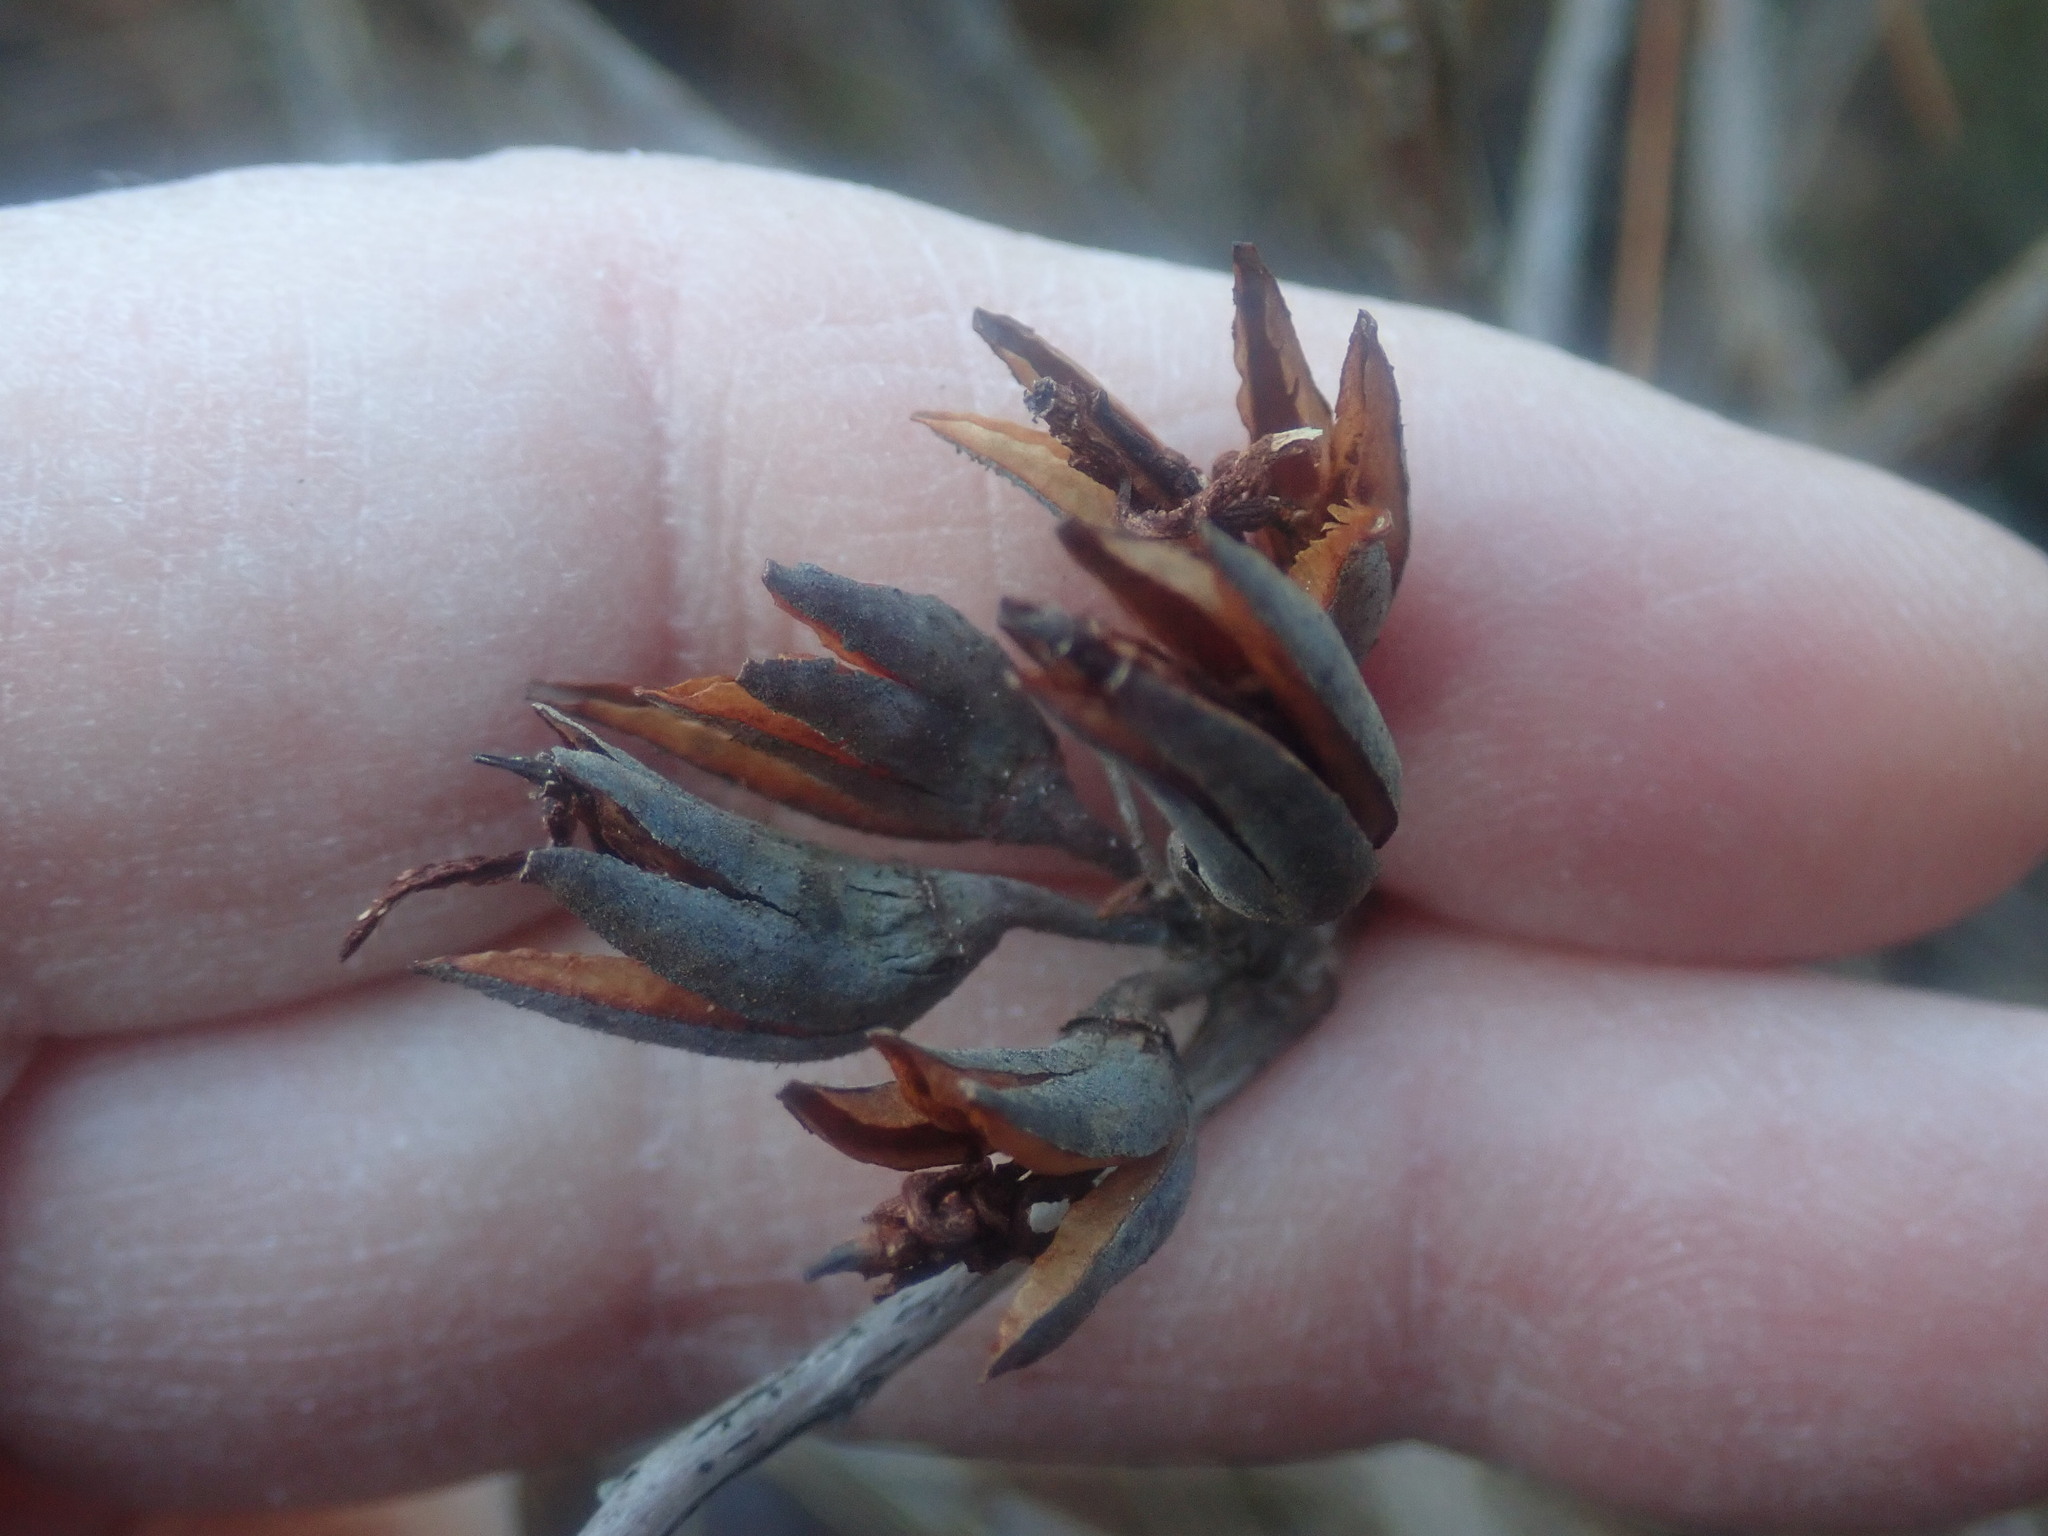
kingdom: Plantae
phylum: Tracheophyta
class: Magnoliopsida
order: Ericales
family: Ericaceae
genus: Rhododendron
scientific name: Rhododendron
